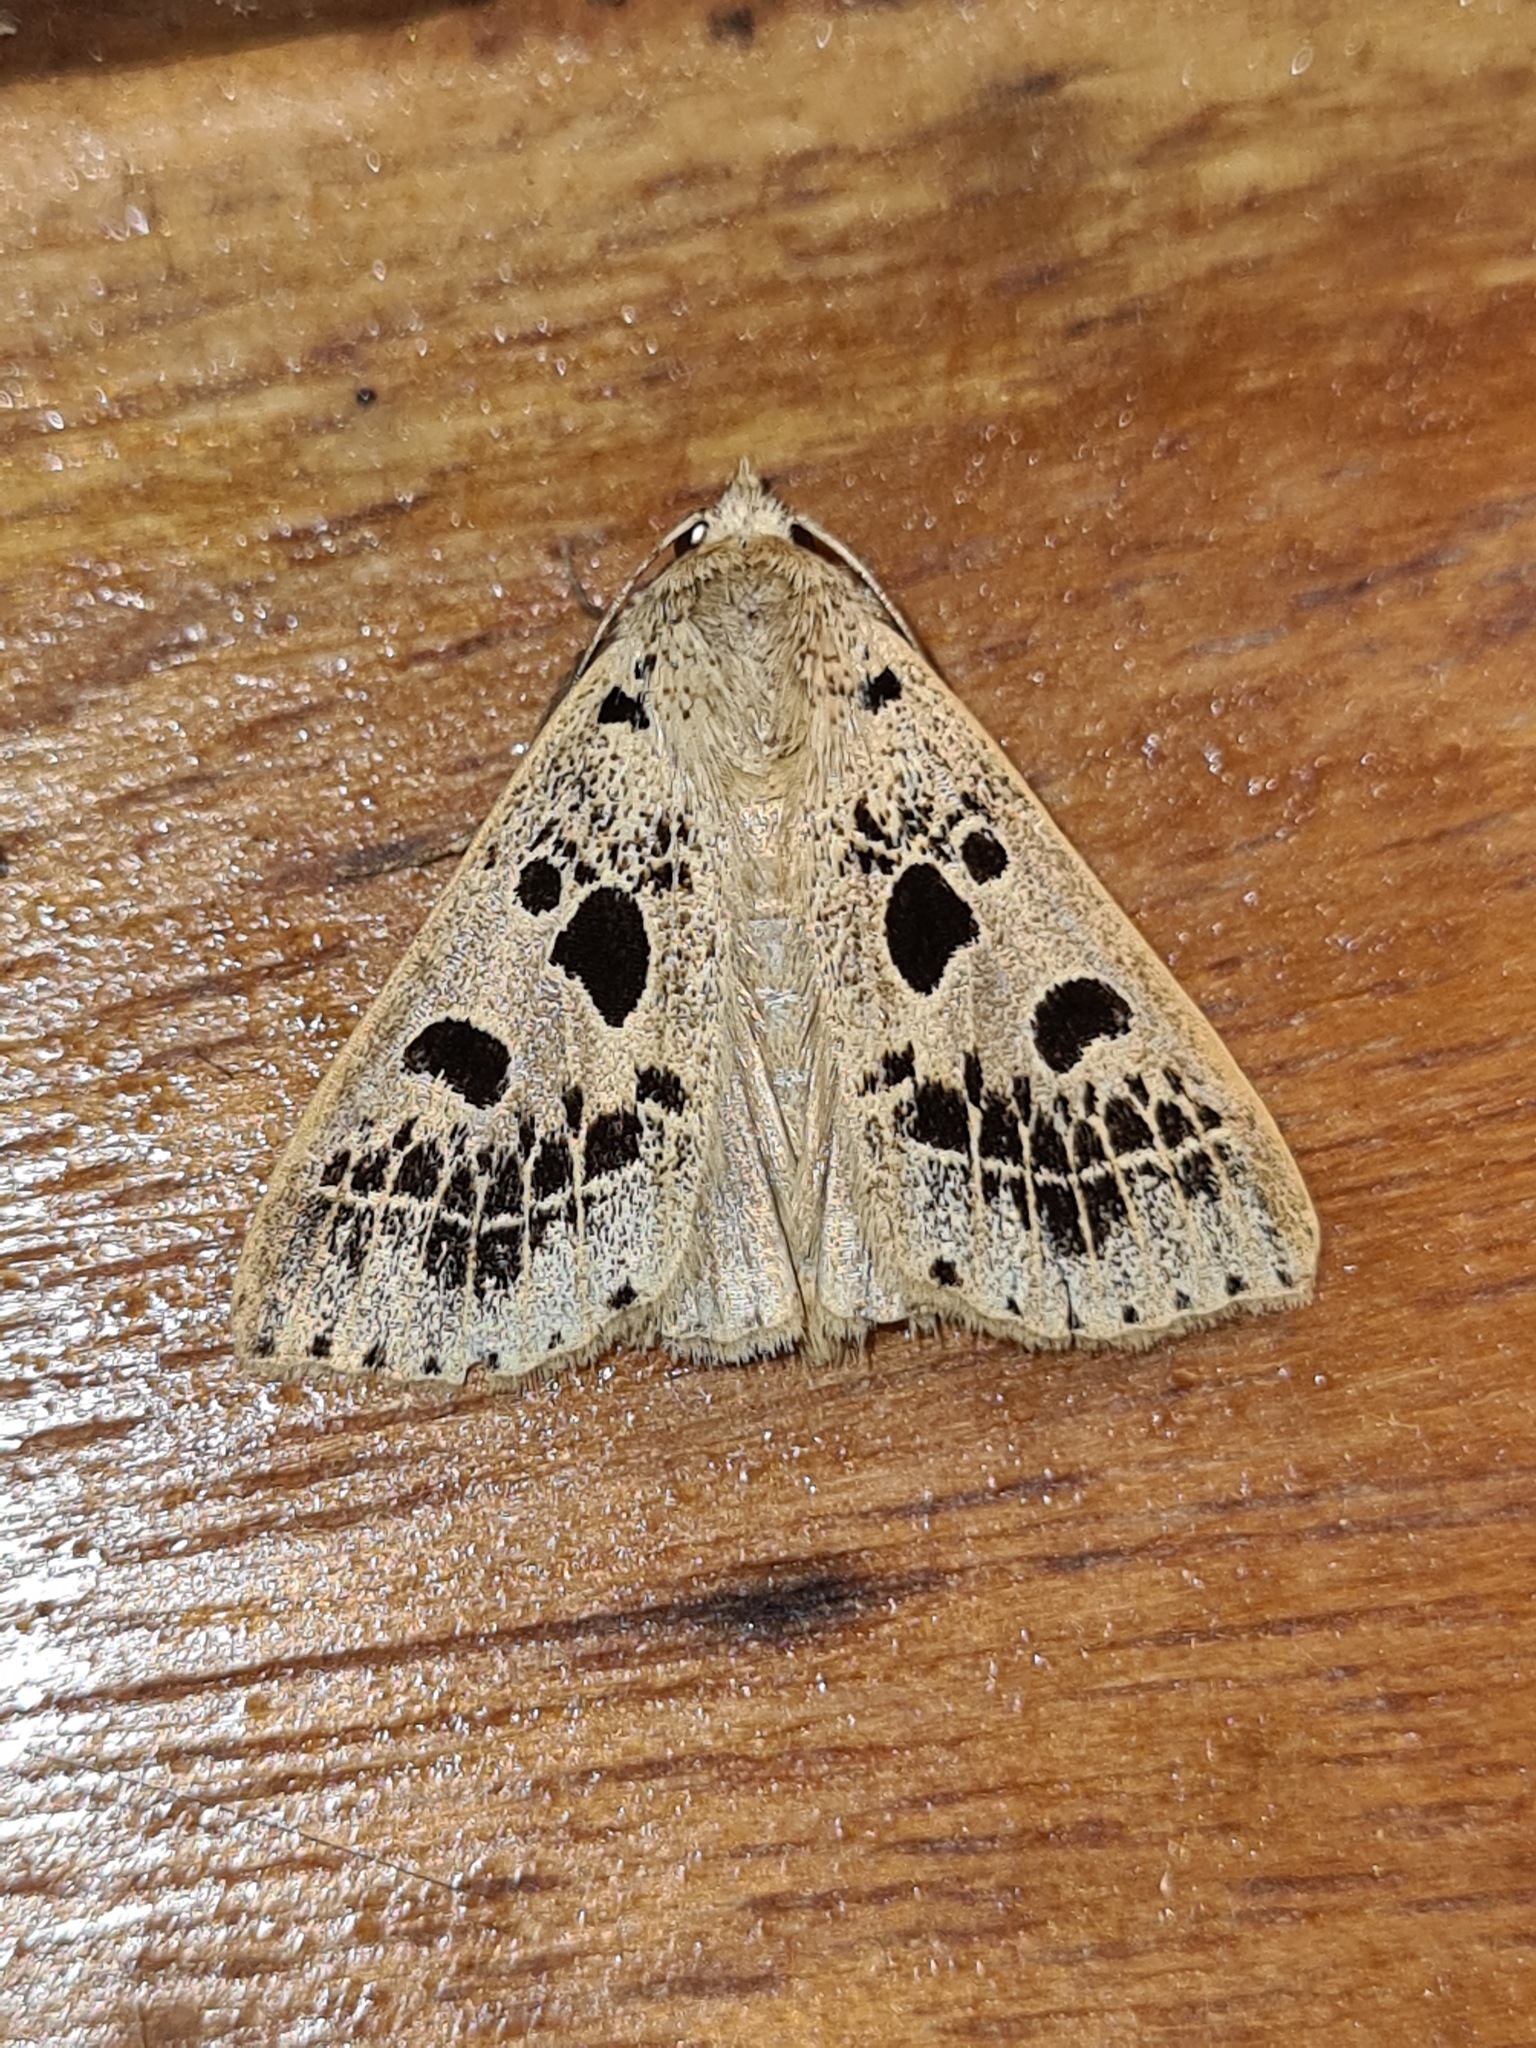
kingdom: Animalia
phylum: Arthropoda
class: Insecta
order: Lepidoptera
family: Erebidae
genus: Scolecocampa
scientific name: Scolecocampa Herminodes atrosignata
